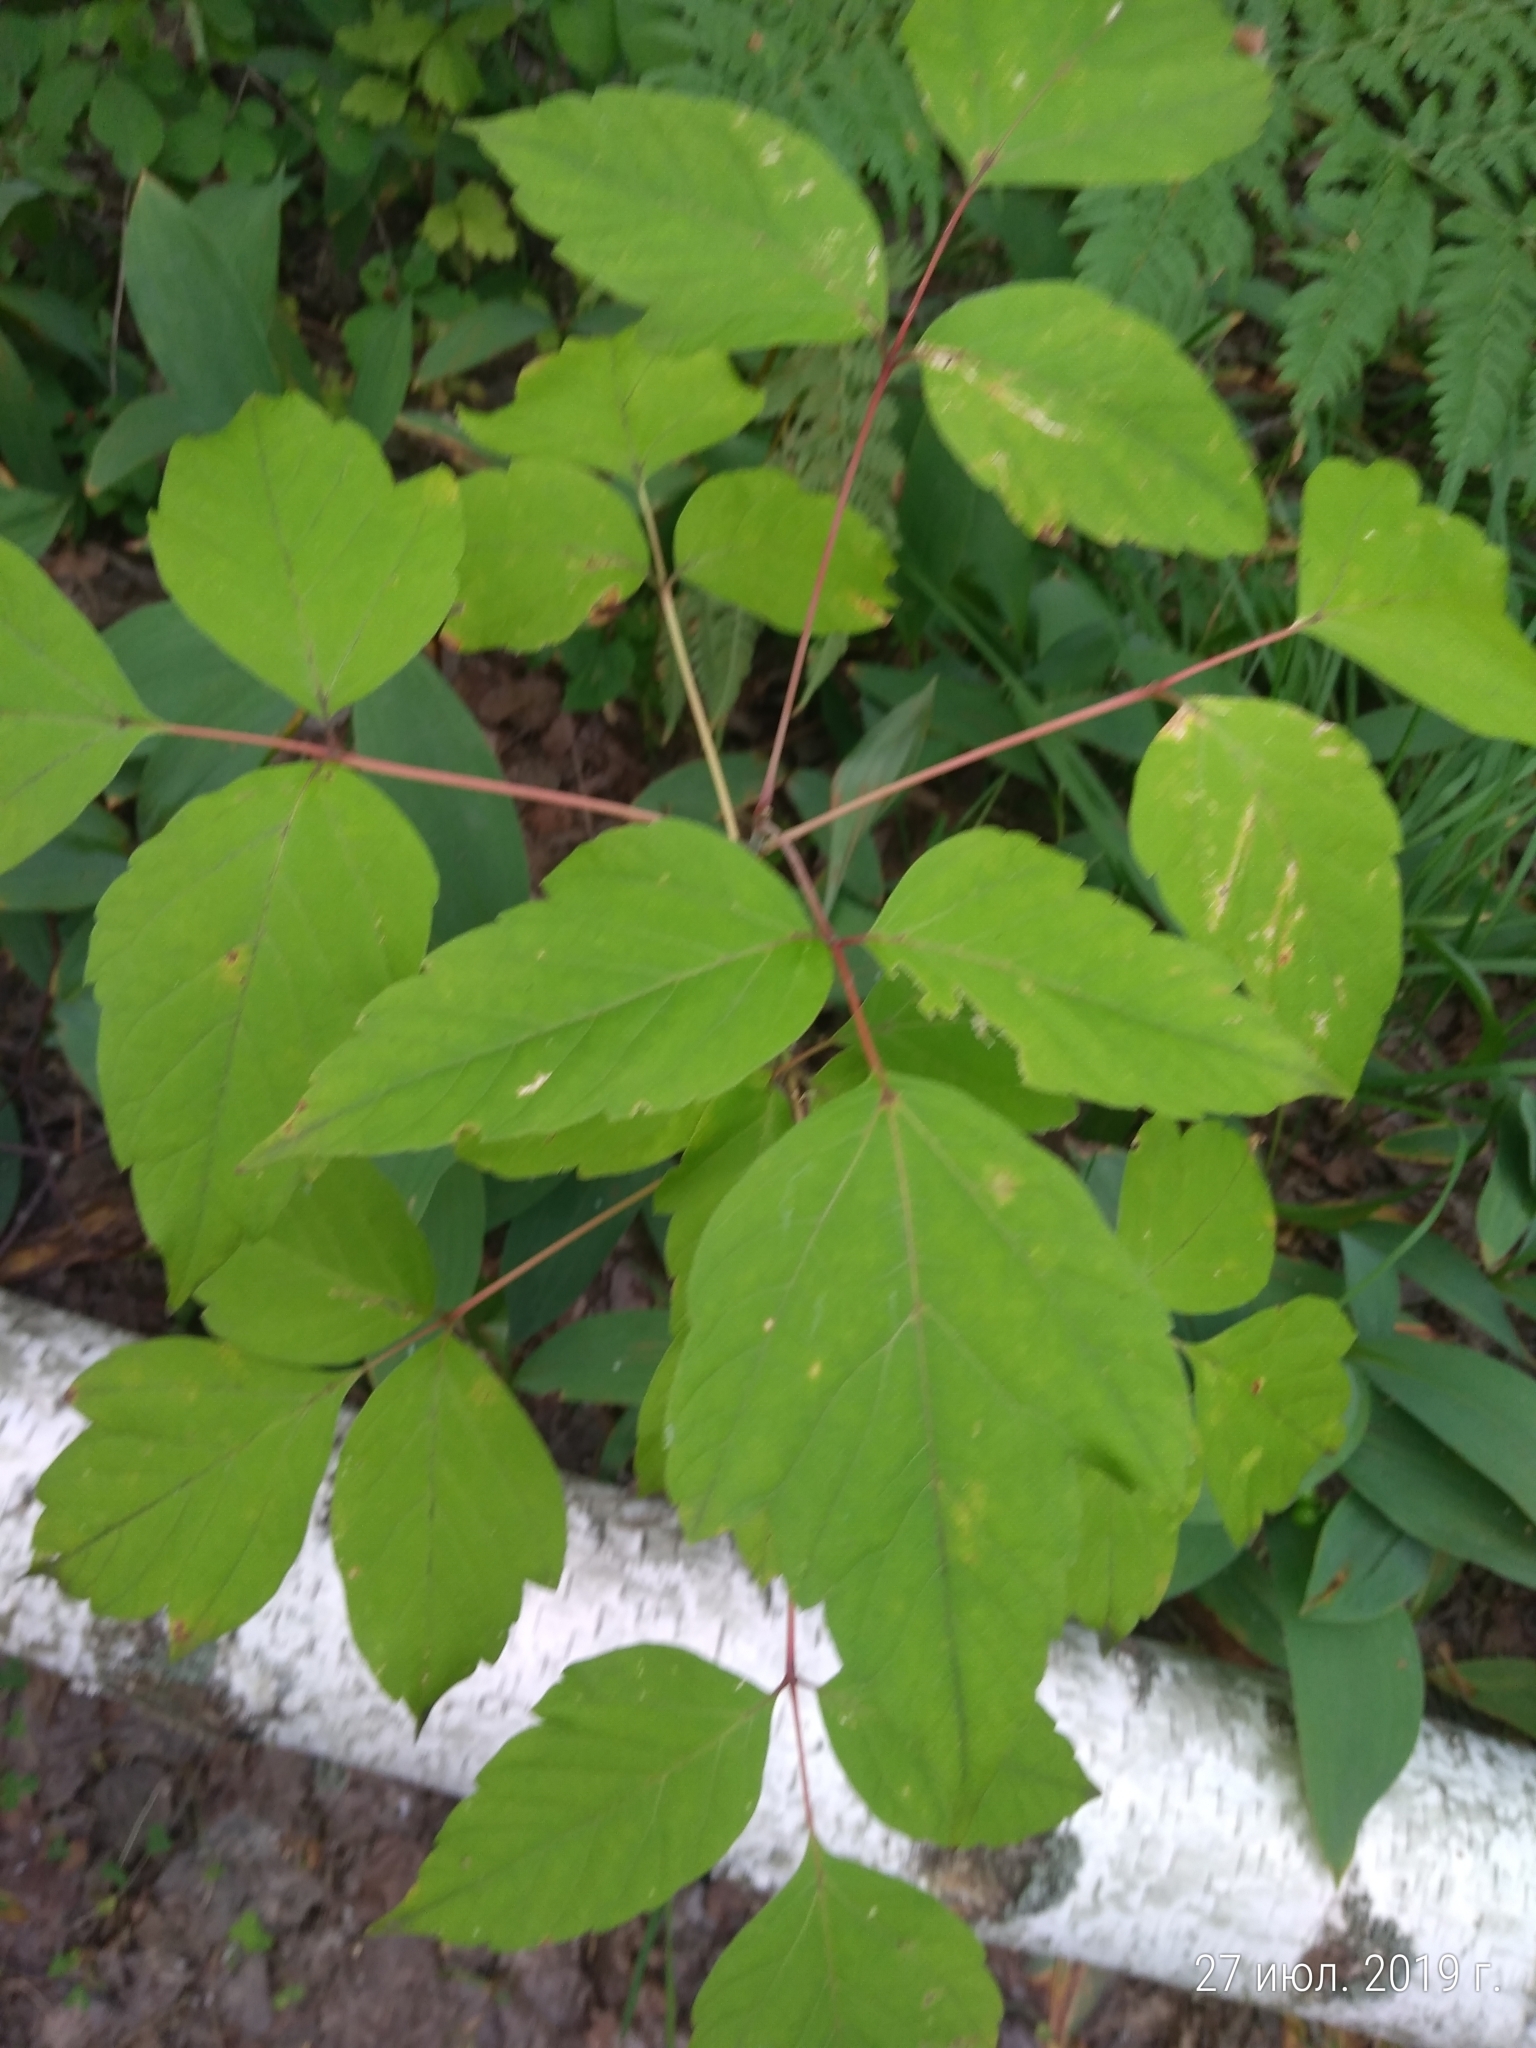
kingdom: Plantae
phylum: Tracheophyta
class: Magnoliopsida
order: Sapindales
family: Sapindaceae
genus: Acer
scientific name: Acer negundo
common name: Ashleaf maple
